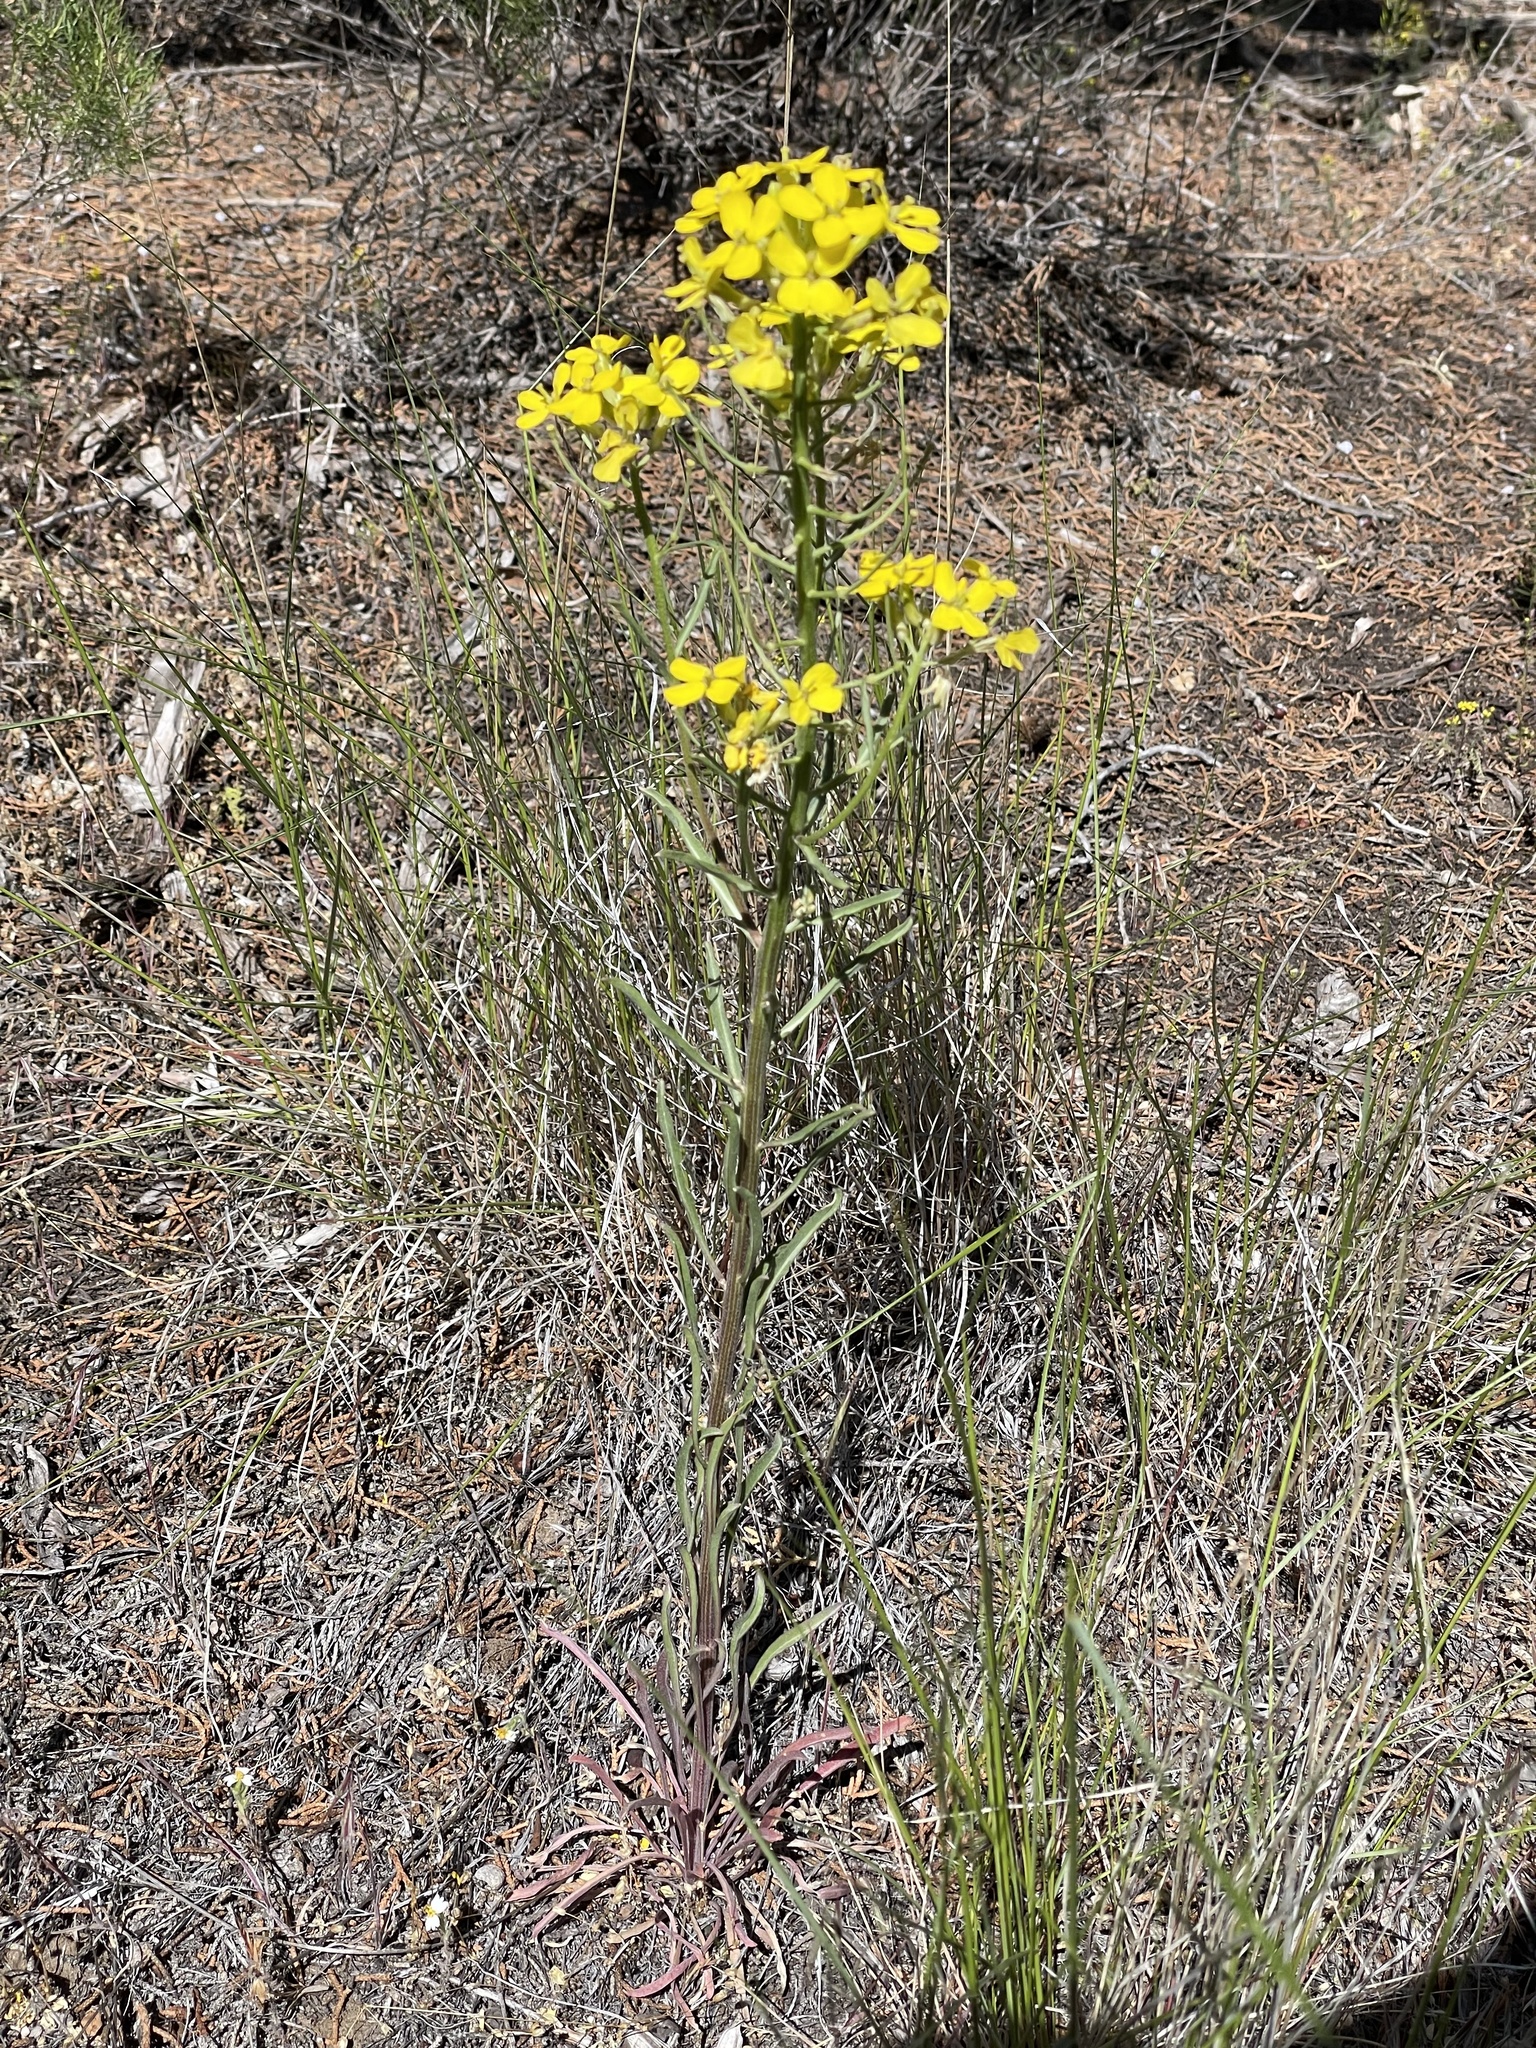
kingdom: Plantae
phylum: Tracheophyta
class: Magnoliopsida
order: Brassicales
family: Brassicaceae
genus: Erysimum
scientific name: Erysimum capitatum
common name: Western wallflower
